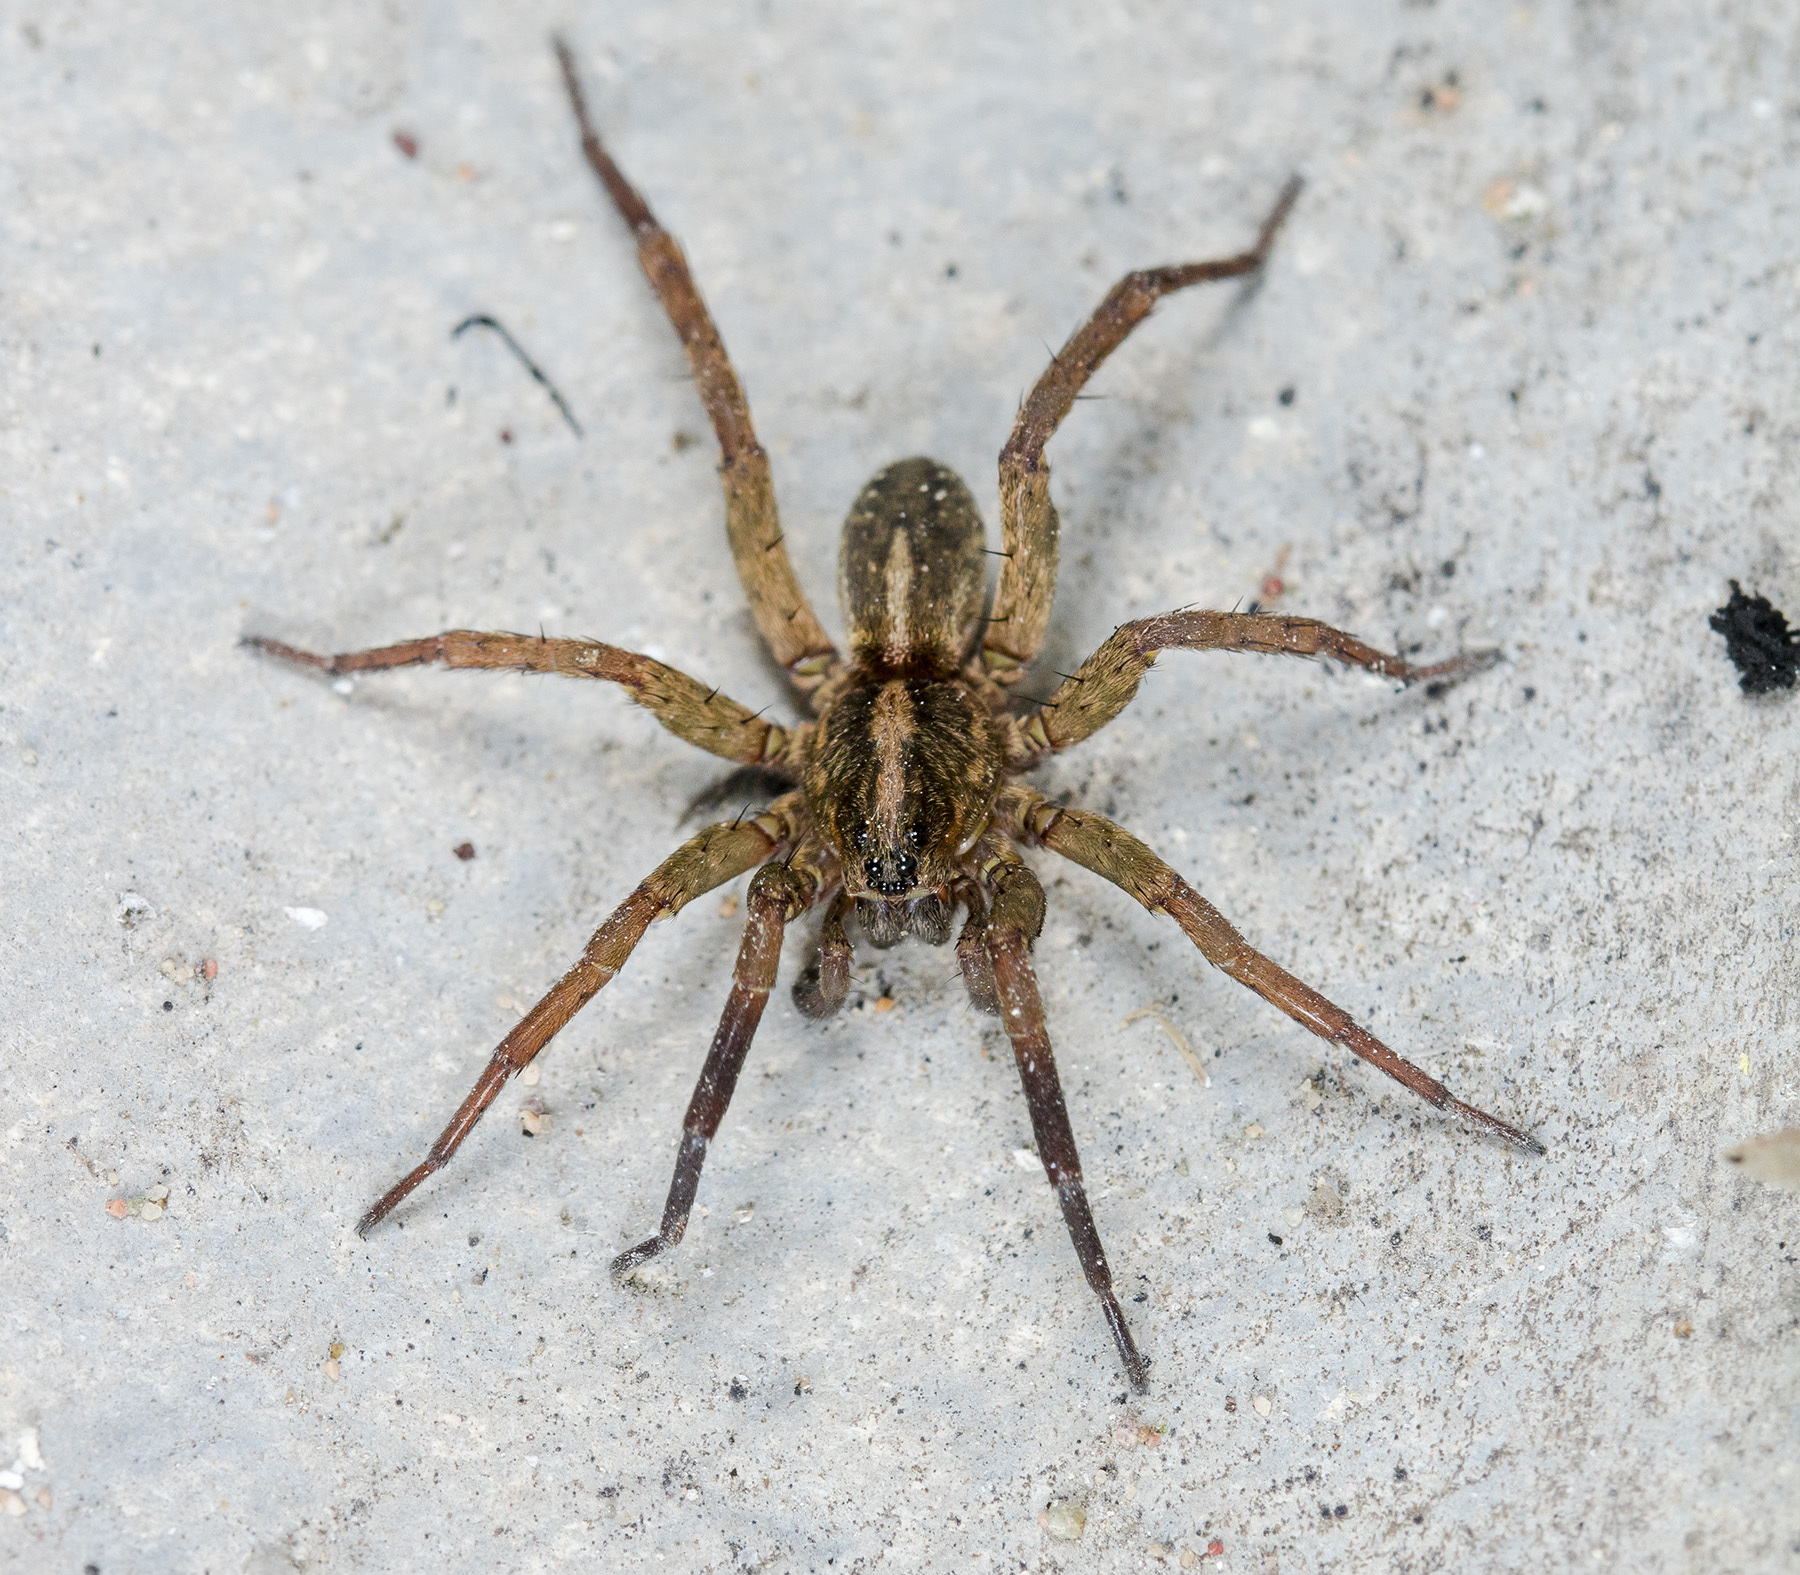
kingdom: Animalia
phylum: Arthropoda
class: Arachnida
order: Araneae
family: Lycosidae
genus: Trochosa
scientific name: Trochosa ruricola
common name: Spider
